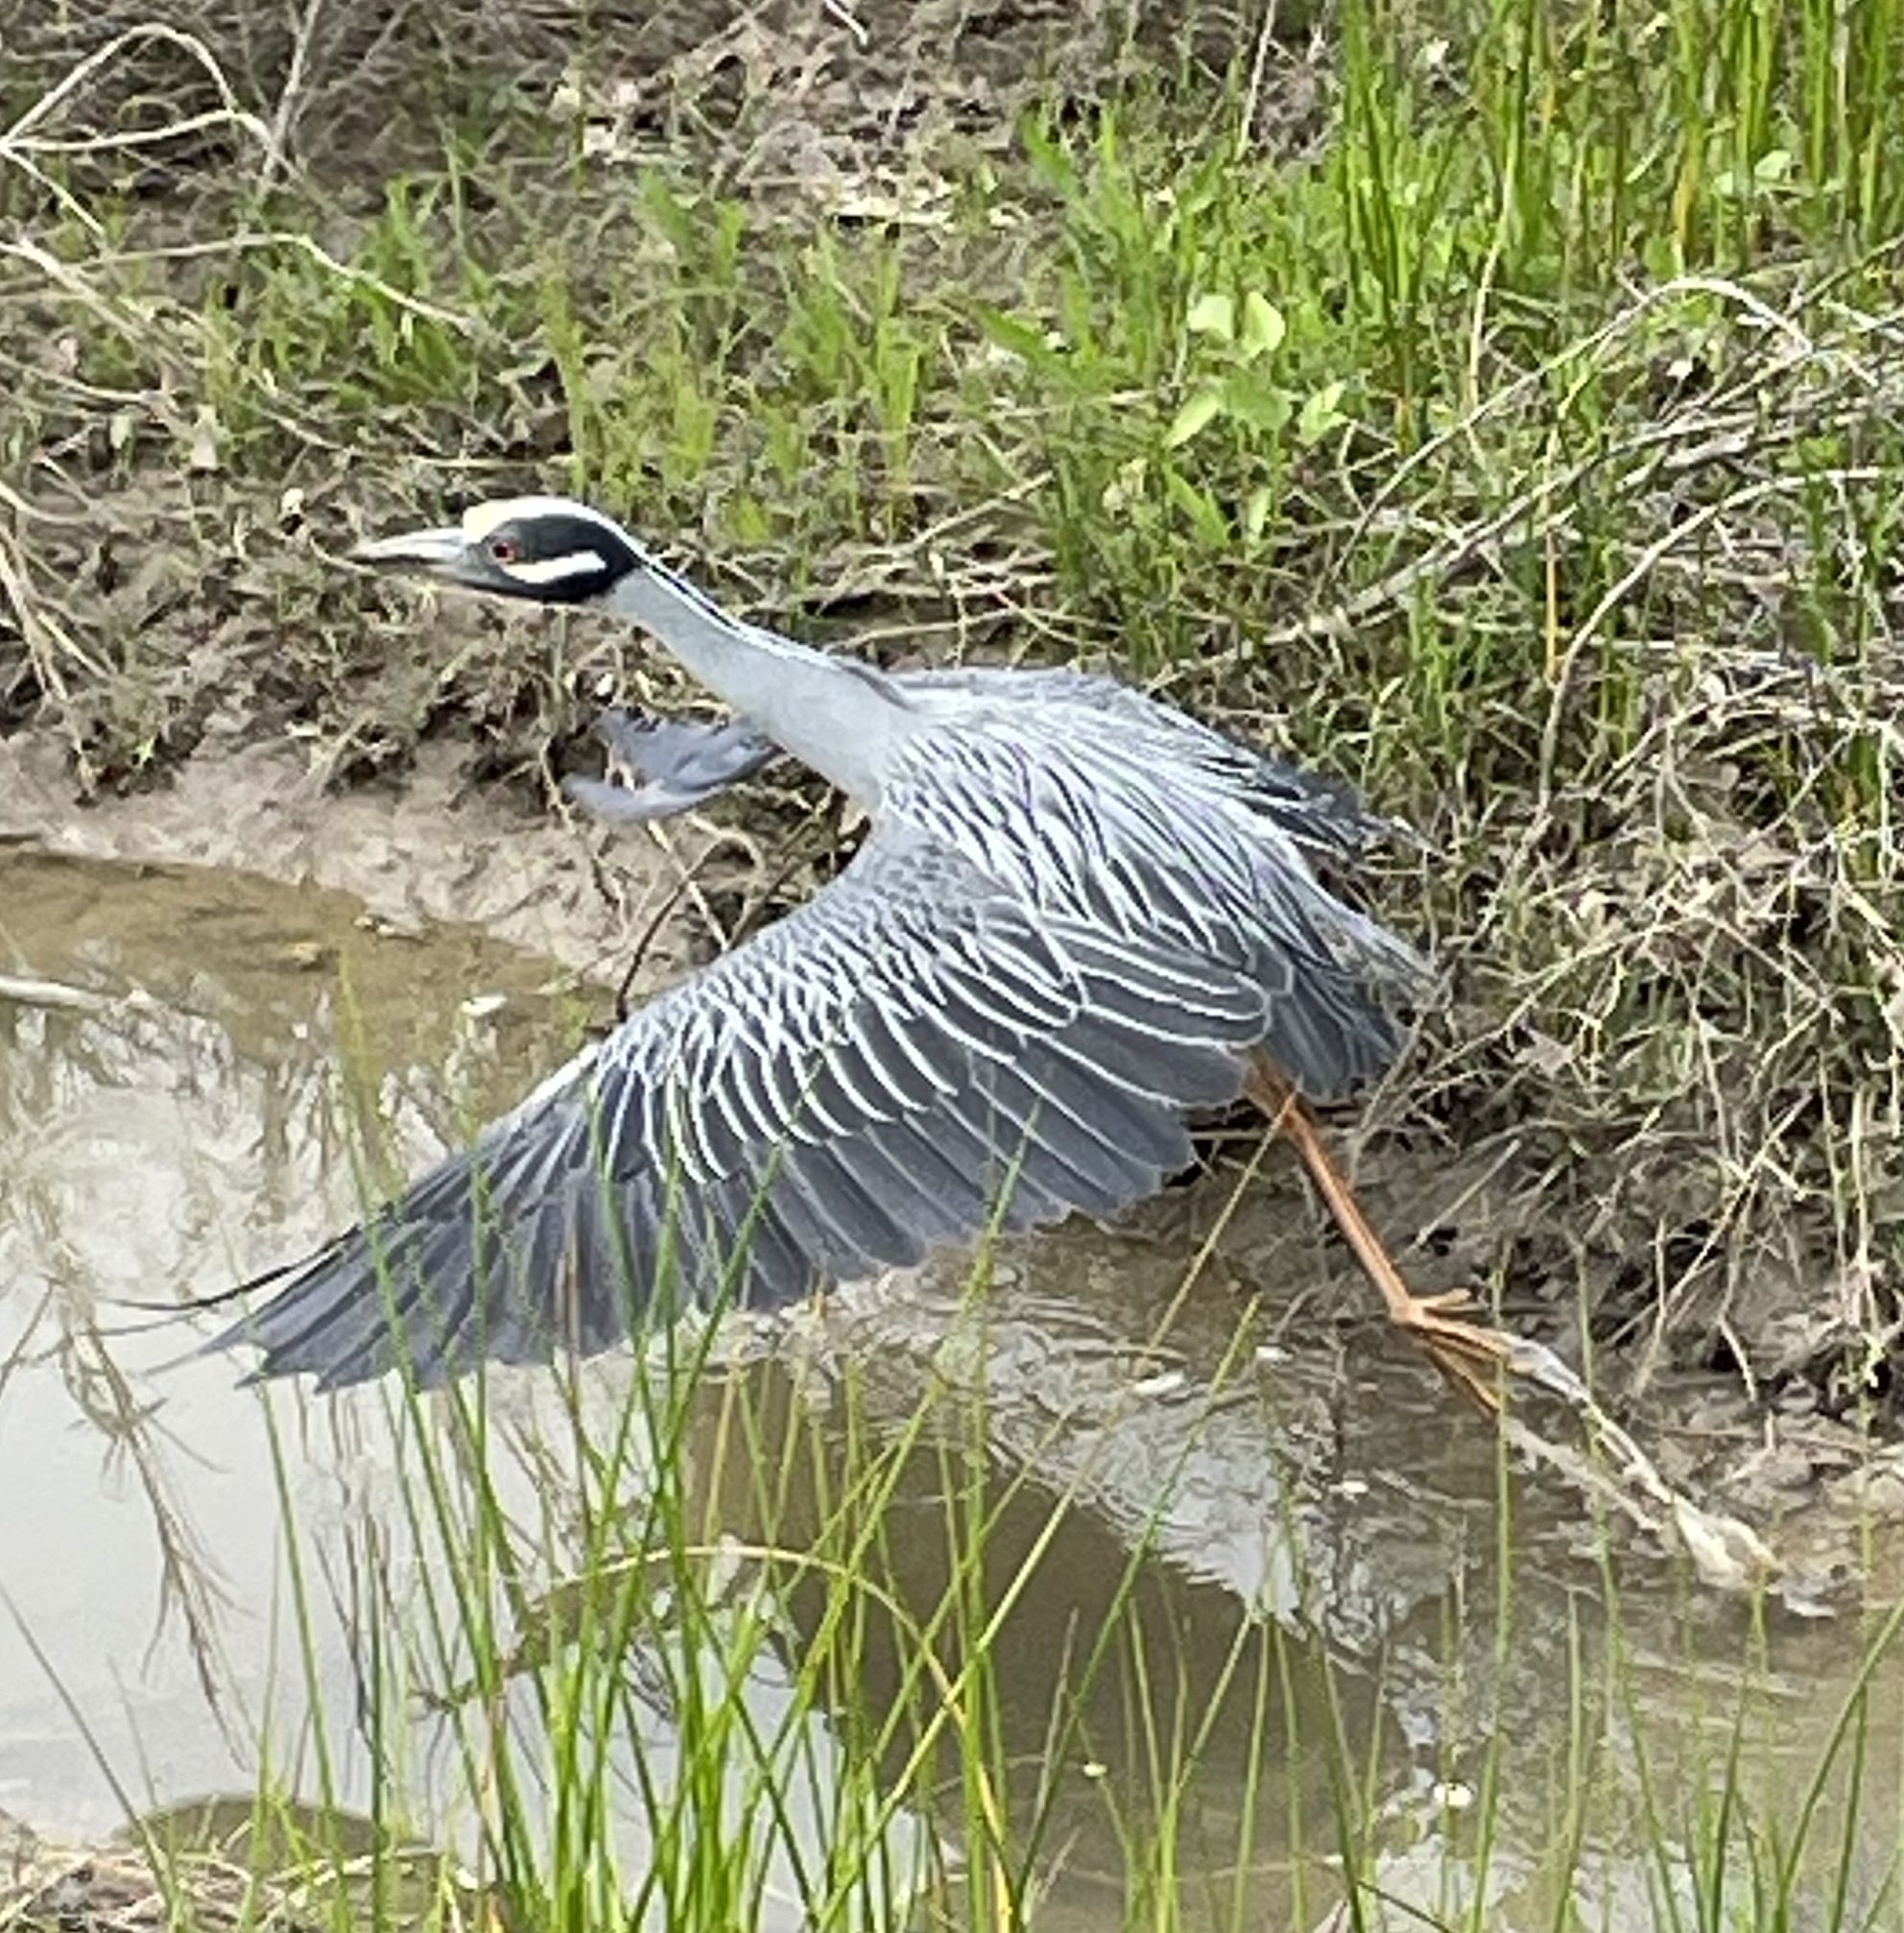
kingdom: Animalia
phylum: Chordata
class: Aves
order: Pelecaniformes
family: Ardeidae
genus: Nyctanassa
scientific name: Nyctanassa violacea
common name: Yellow-crowned night heron
